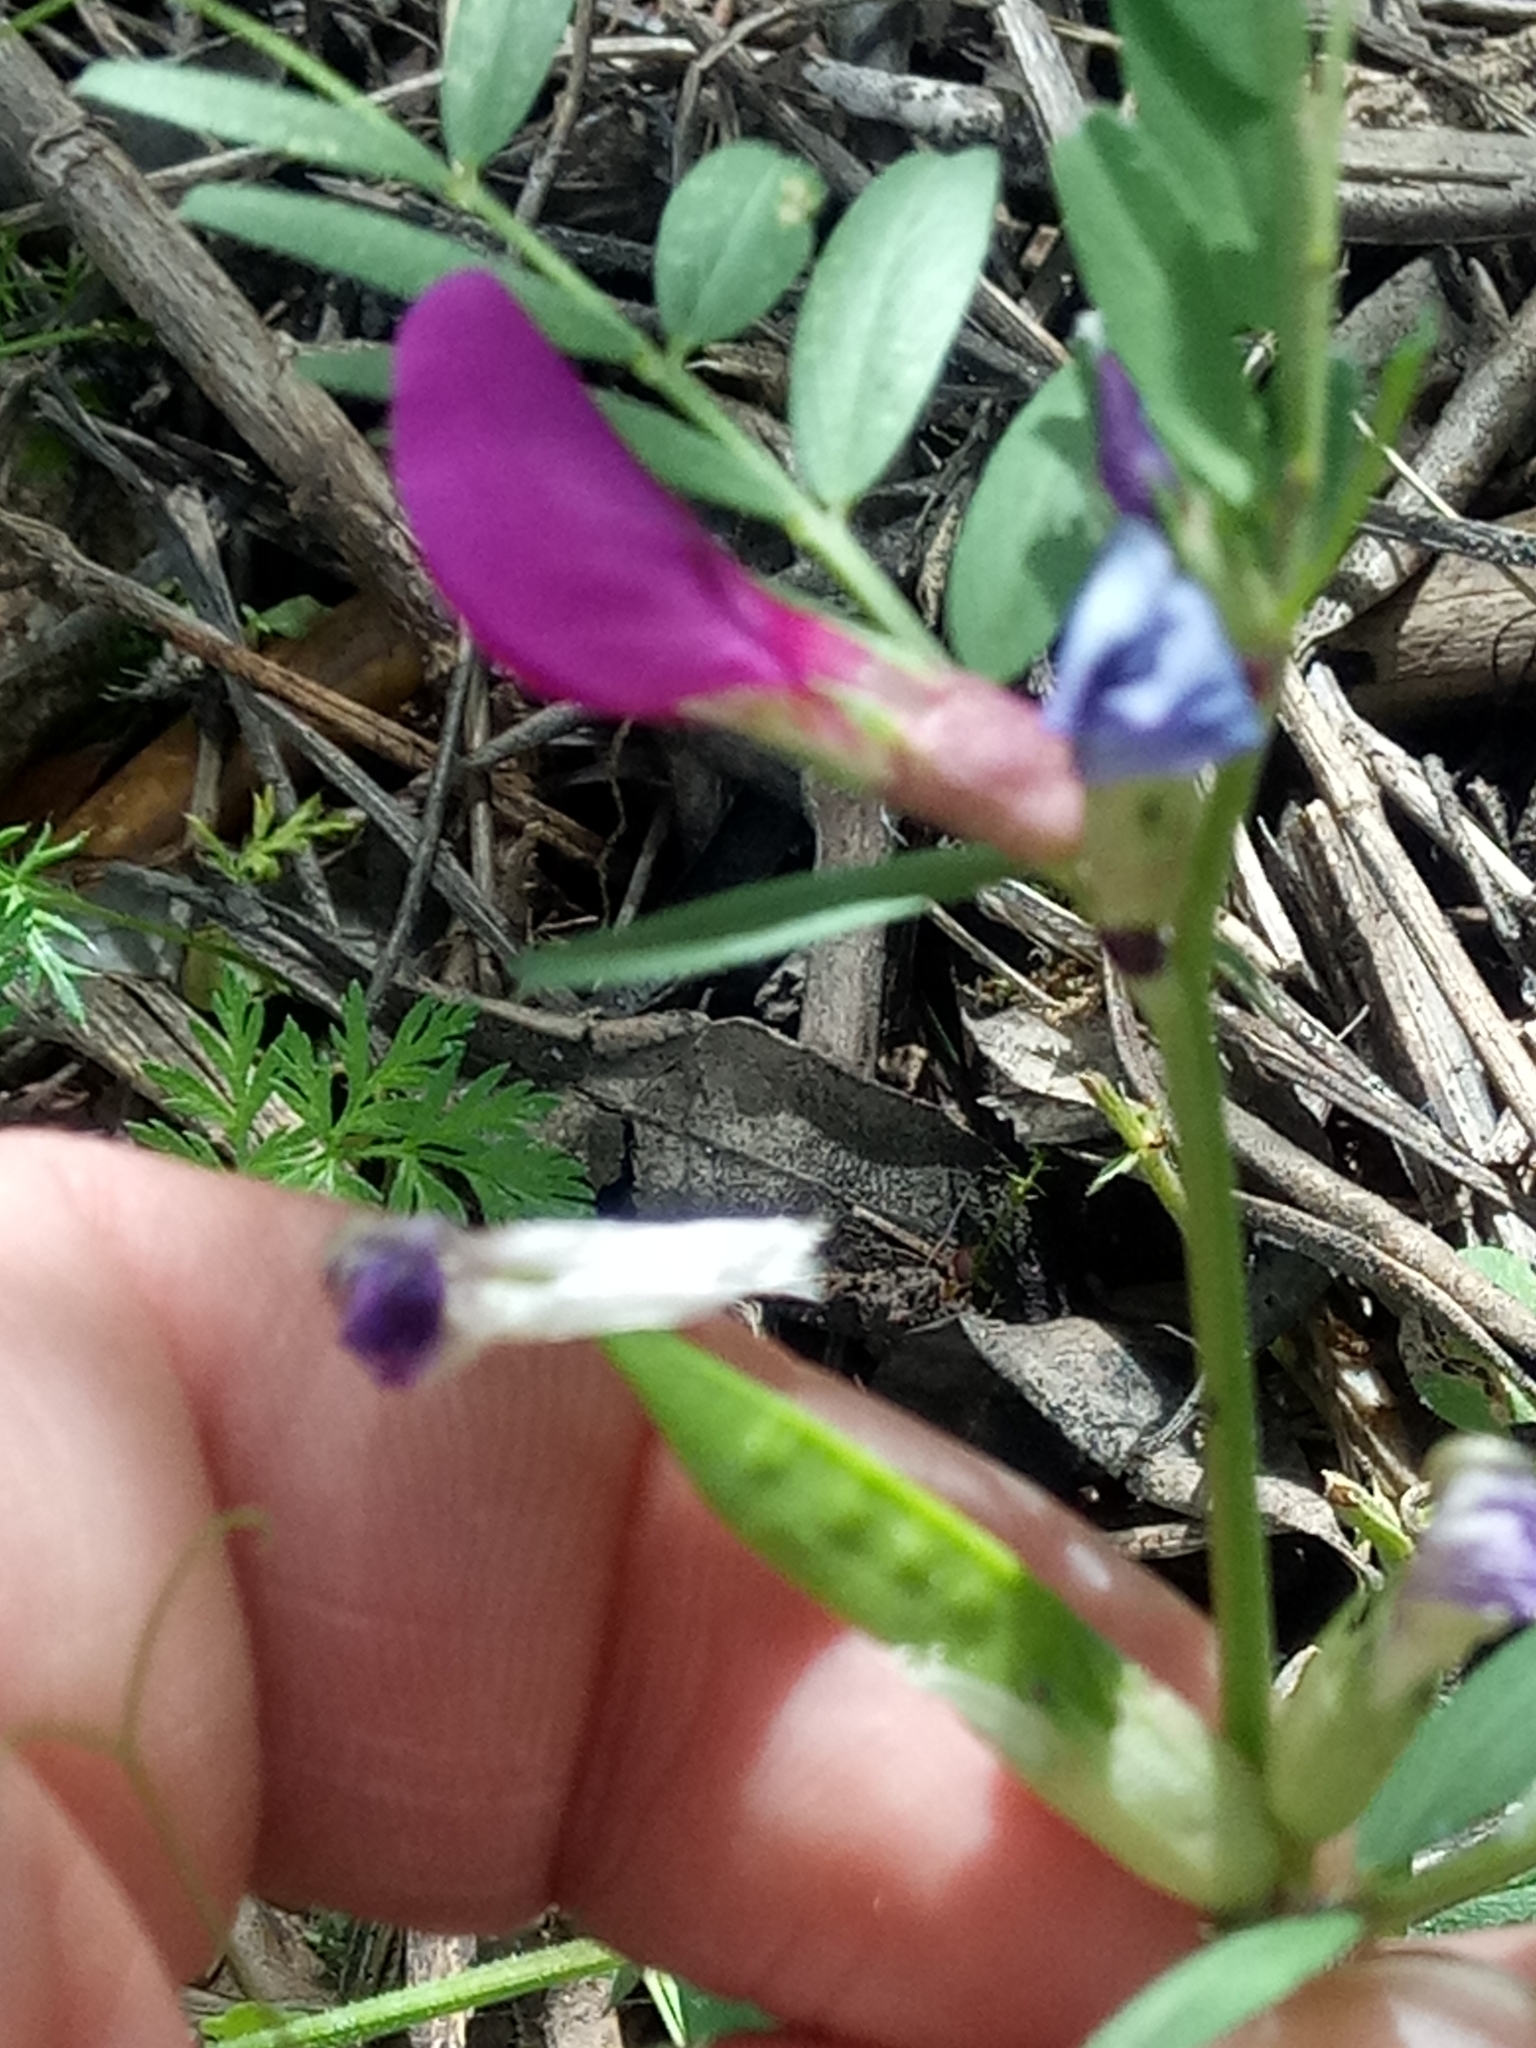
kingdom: Plantae
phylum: Tracheophyta
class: Magnoliopsida
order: Fabales
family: Fabaceae
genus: Vicia
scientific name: Vicia sativa
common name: Garden vetch
